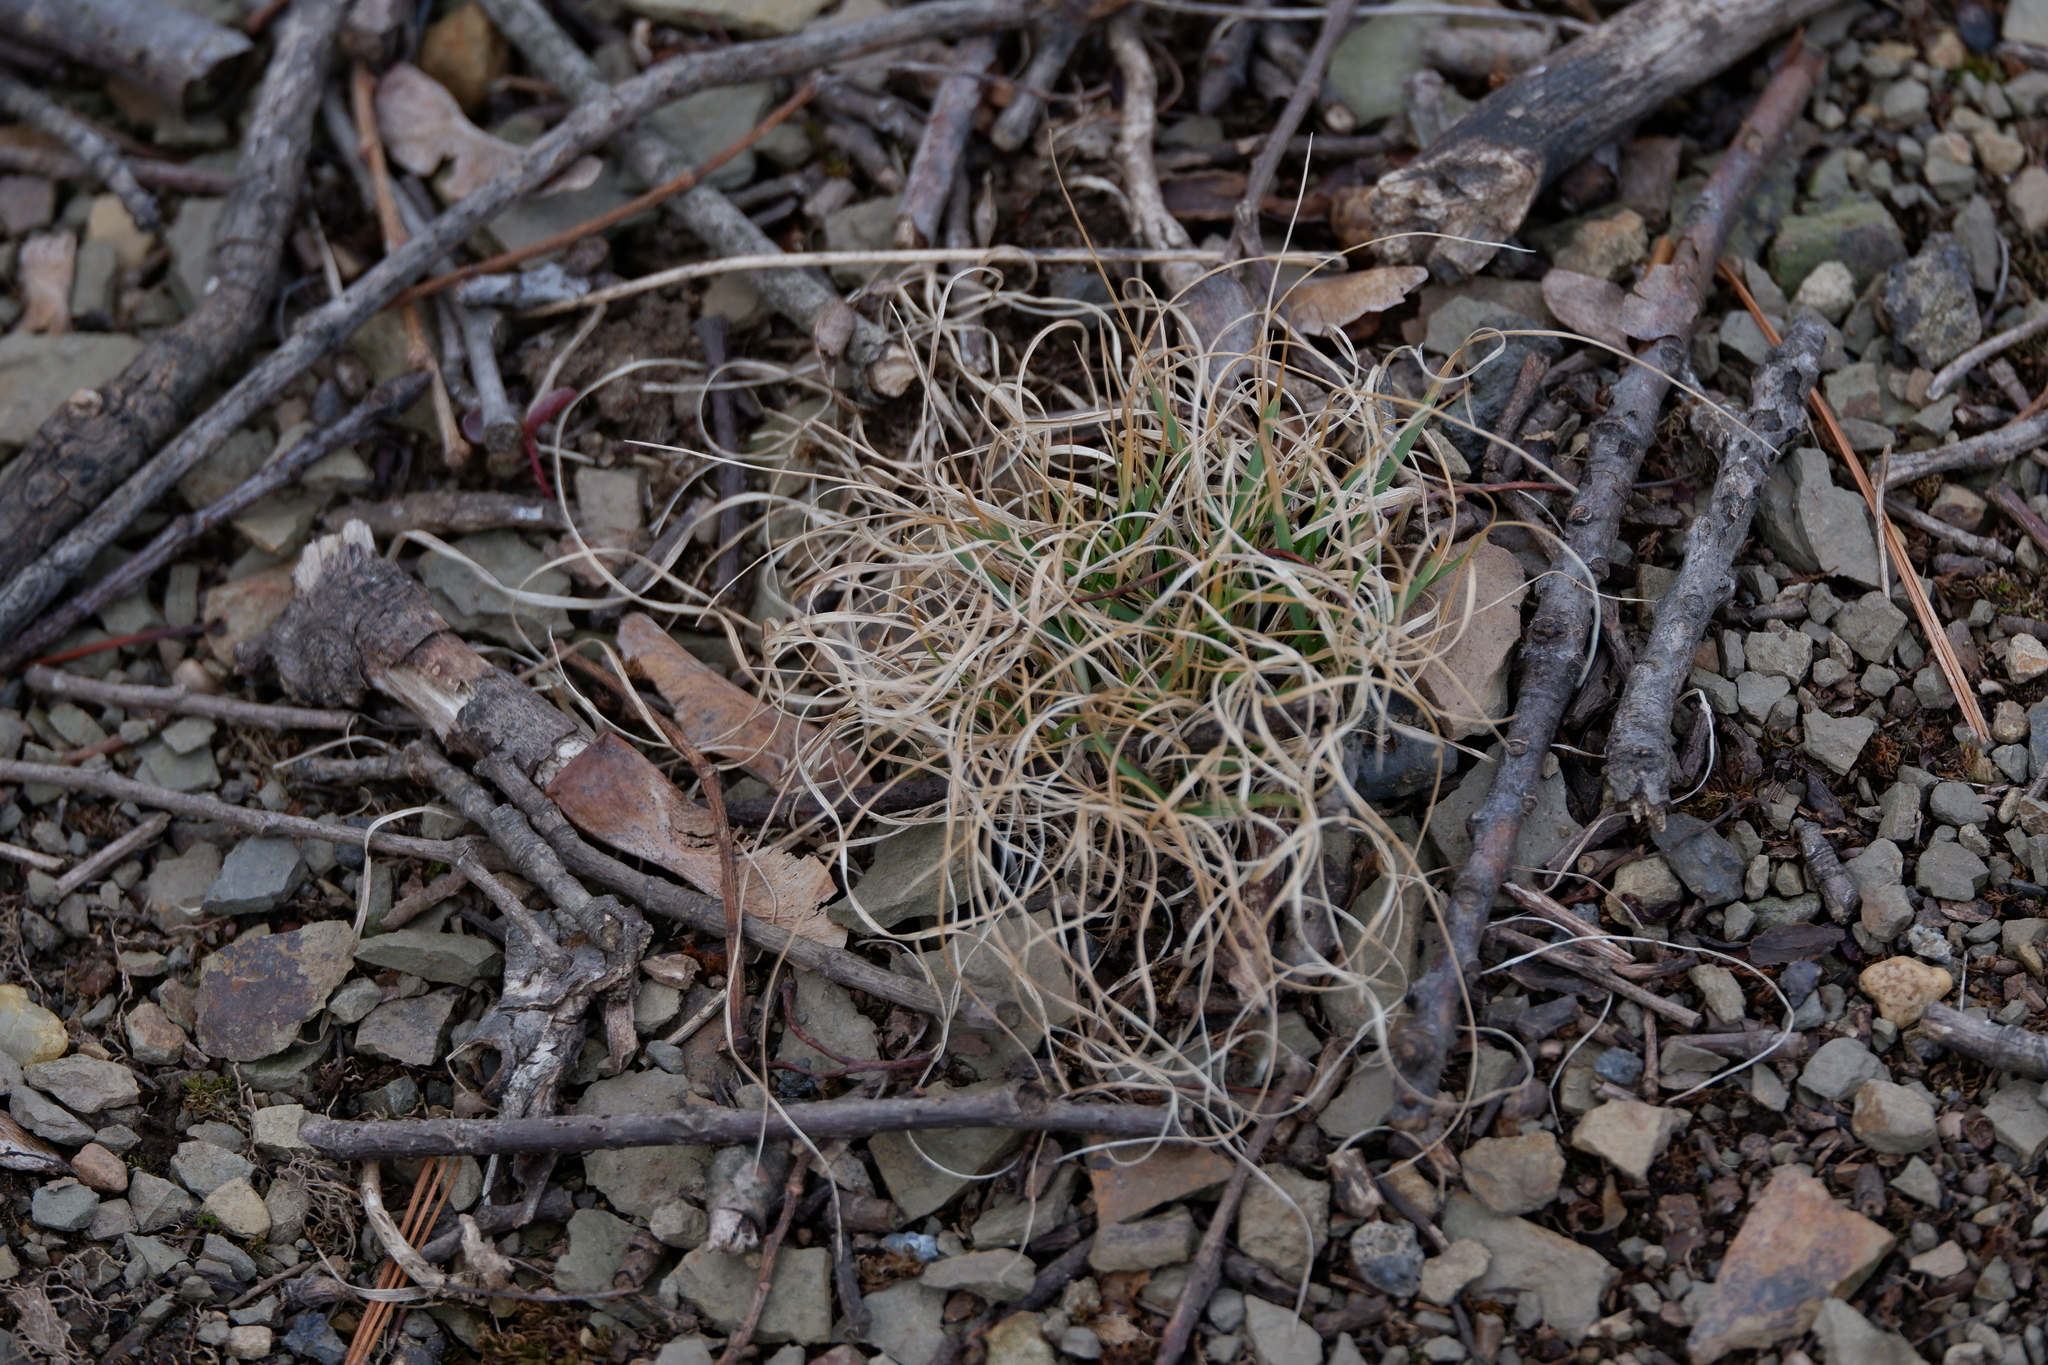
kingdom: Plantae
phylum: Tracheophyta
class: Liliopsida
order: Poales
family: Poaceae
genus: Danthonia
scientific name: Danthonia spicata
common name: Common wild oatgrass
